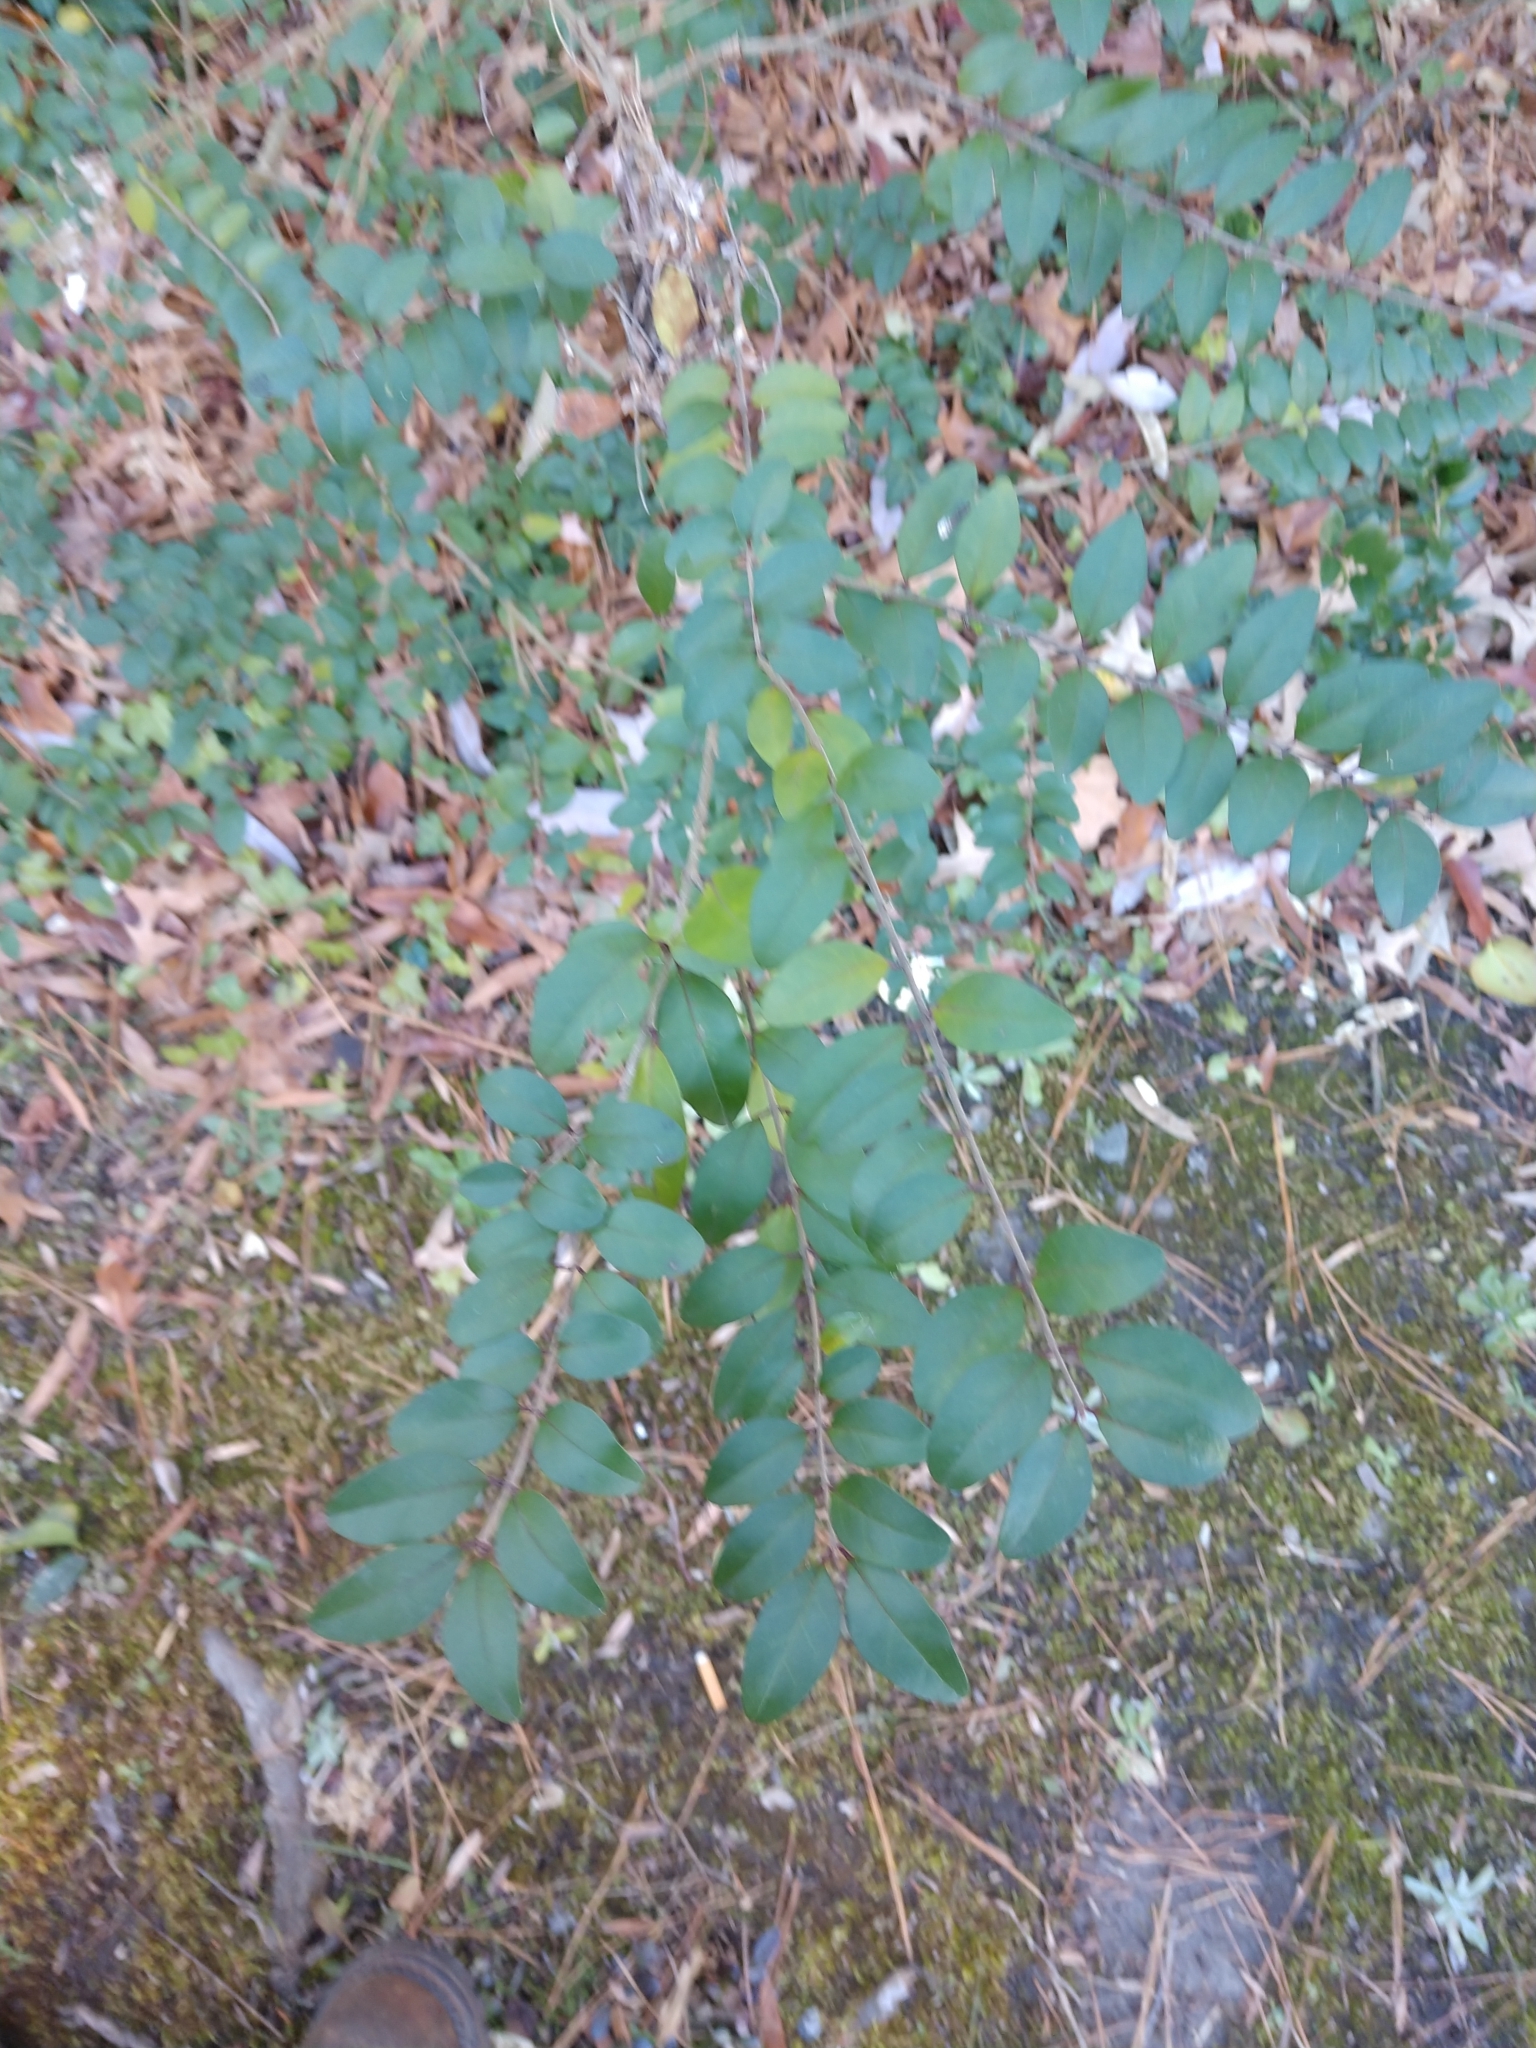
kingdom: Plantae
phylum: Tracheophyta
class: Magnoliopsida
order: Lamiales
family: Oleaceae
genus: Ligustrum
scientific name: Ligustrum sinense
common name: Chinese privet
